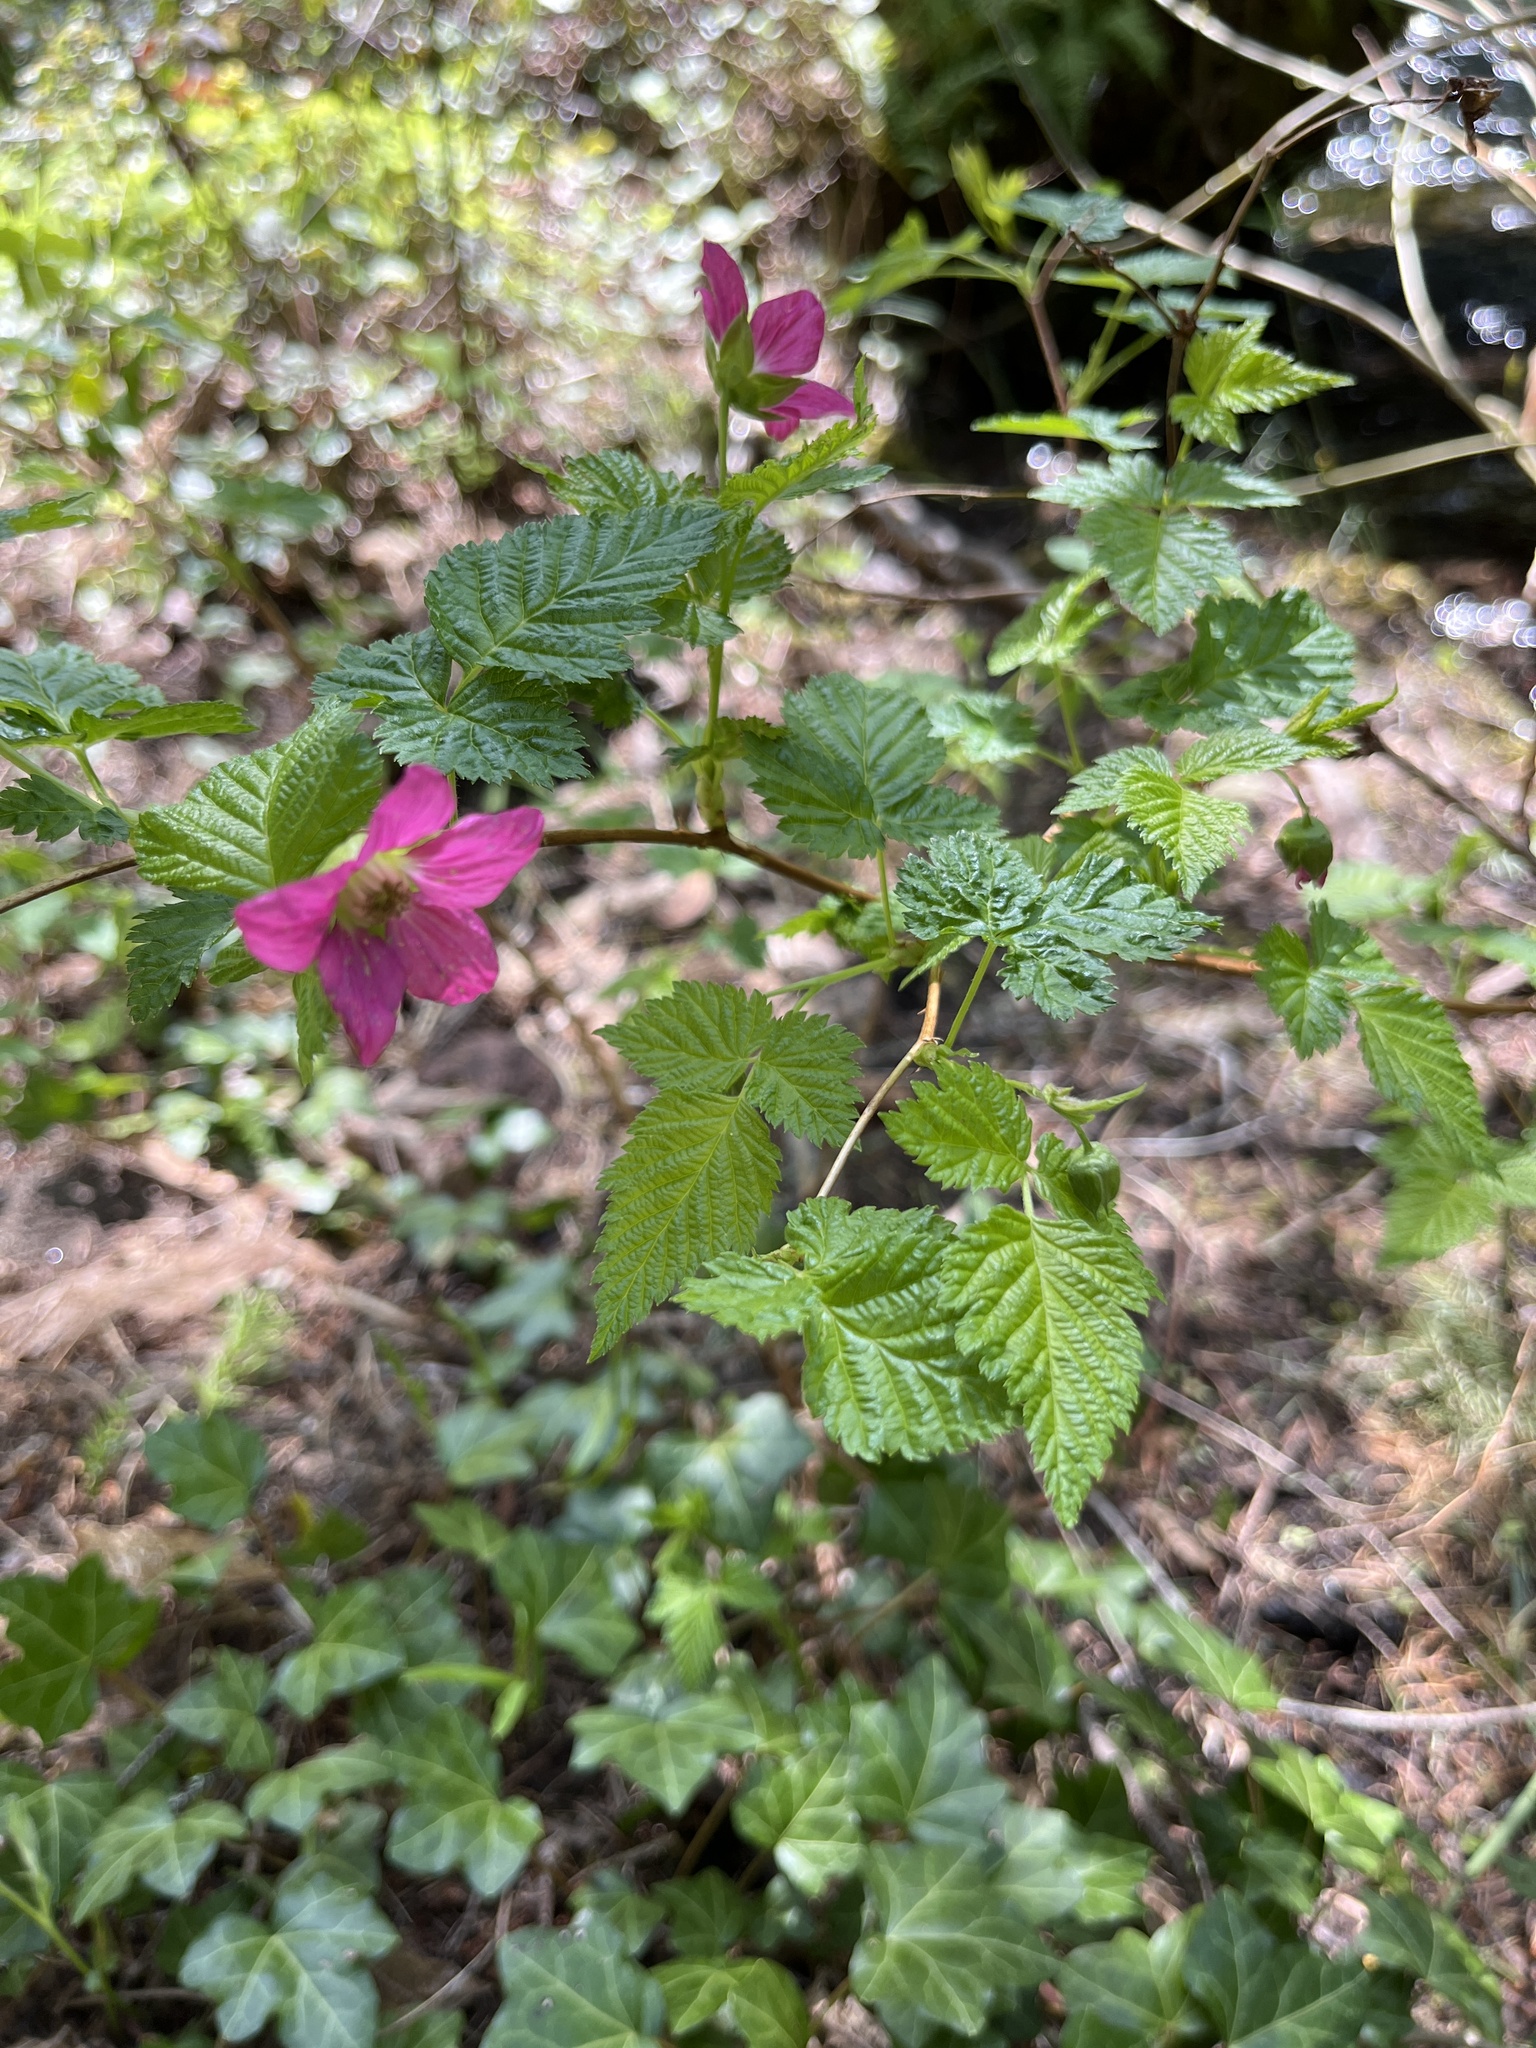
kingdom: Plantae
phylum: Tracheophyta
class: Magnoliopsida
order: Rosales
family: Rosaceae
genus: Rubus
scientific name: Rubus spectabilis
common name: Salmonberry
